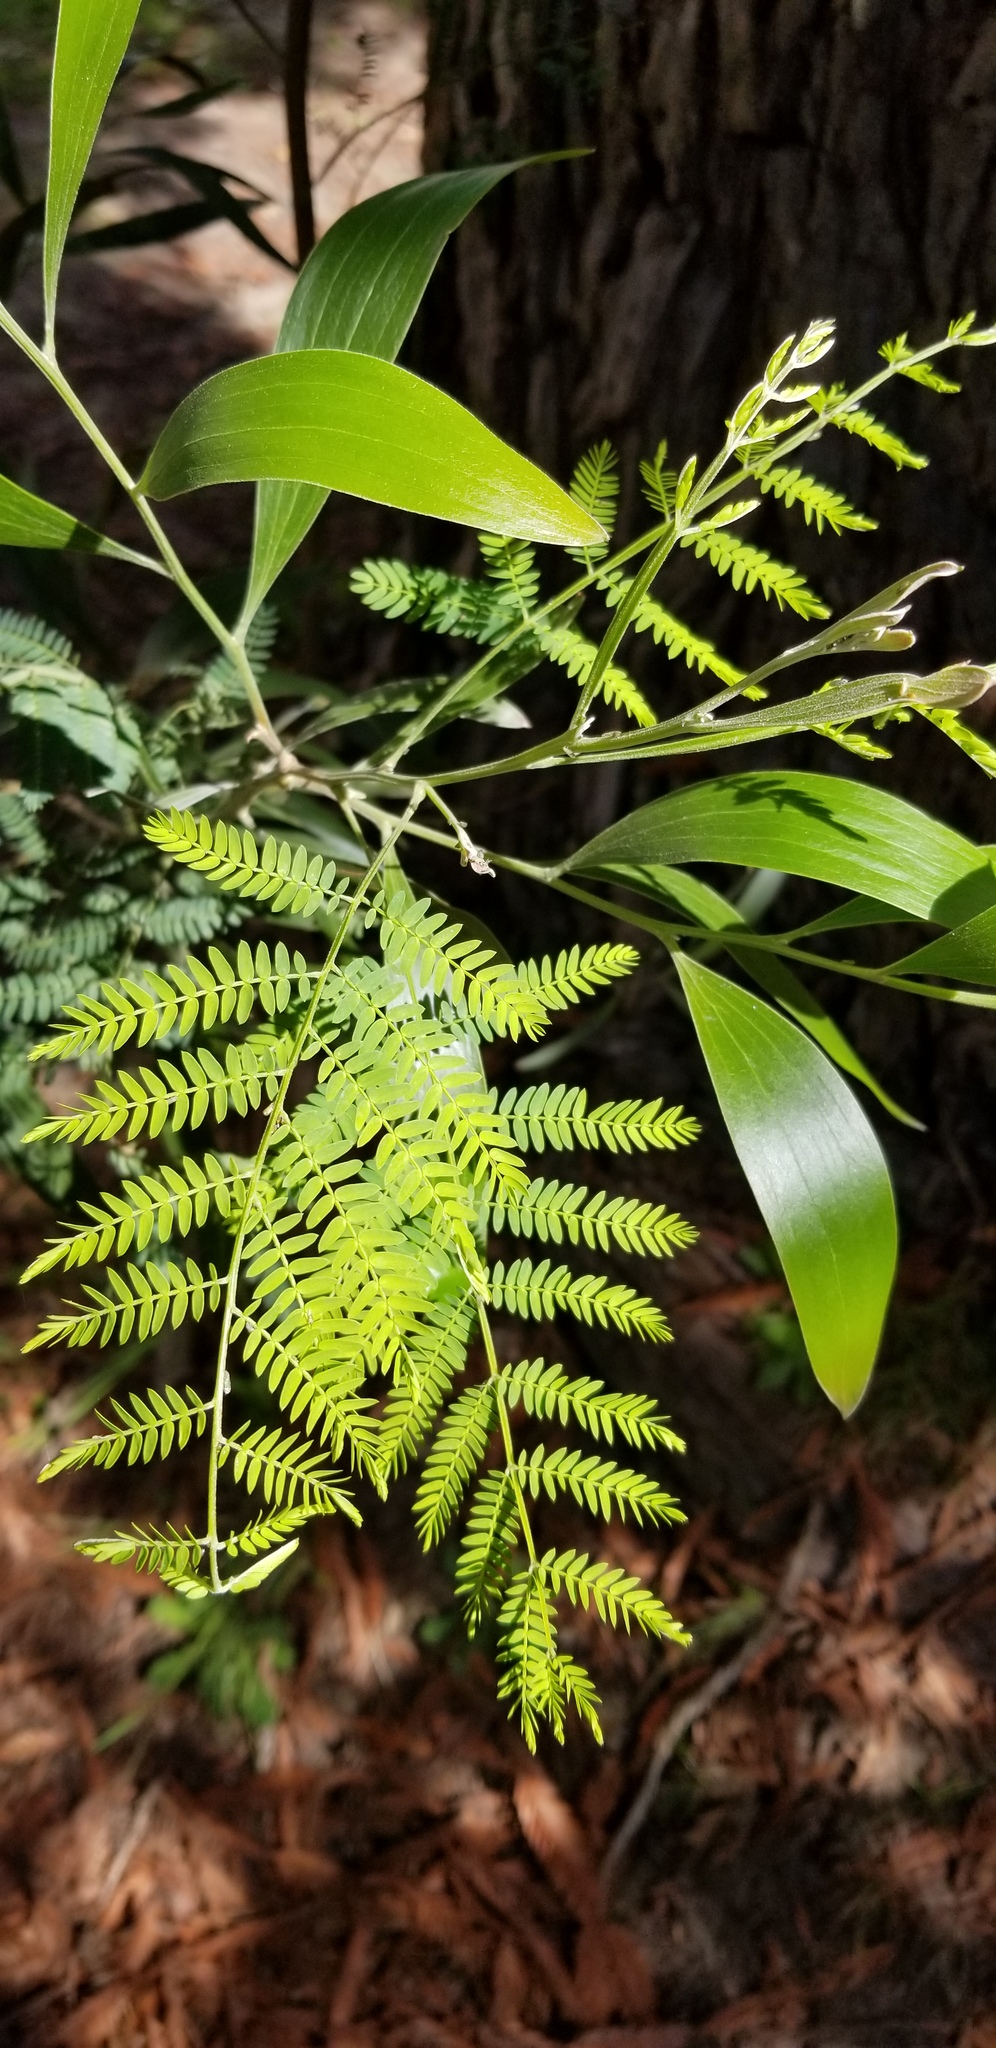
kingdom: Plantae
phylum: Tracheophyta
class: Magnoliopsida
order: Fabales
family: Fabaceae
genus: Acacia
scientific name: Acacia melanoxylon
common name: Blackwood
